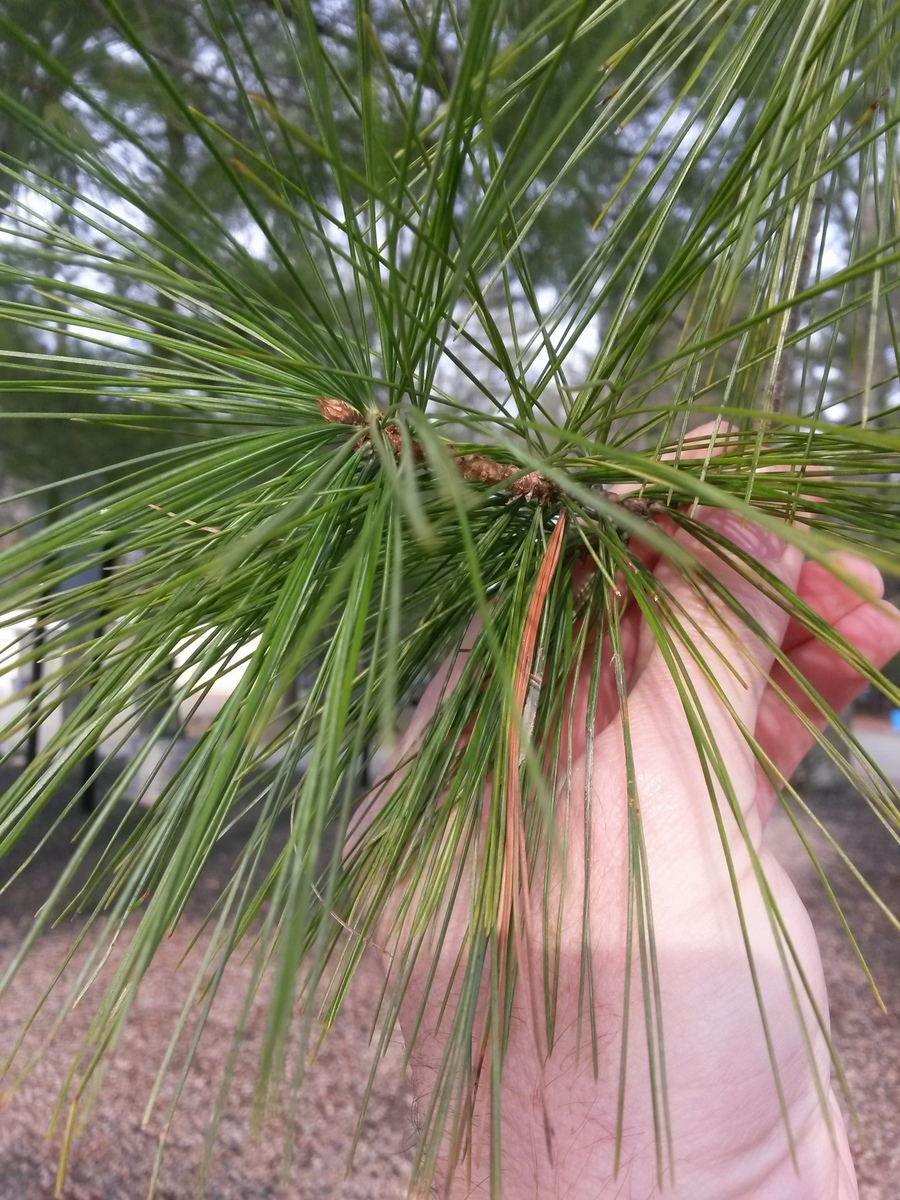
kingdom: Plantae
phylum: Tracheophyta
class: Pinopsida
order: Pinales
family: Pinaceae
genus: Pinus
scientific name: Pinus strobus
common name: Weymouth pine
